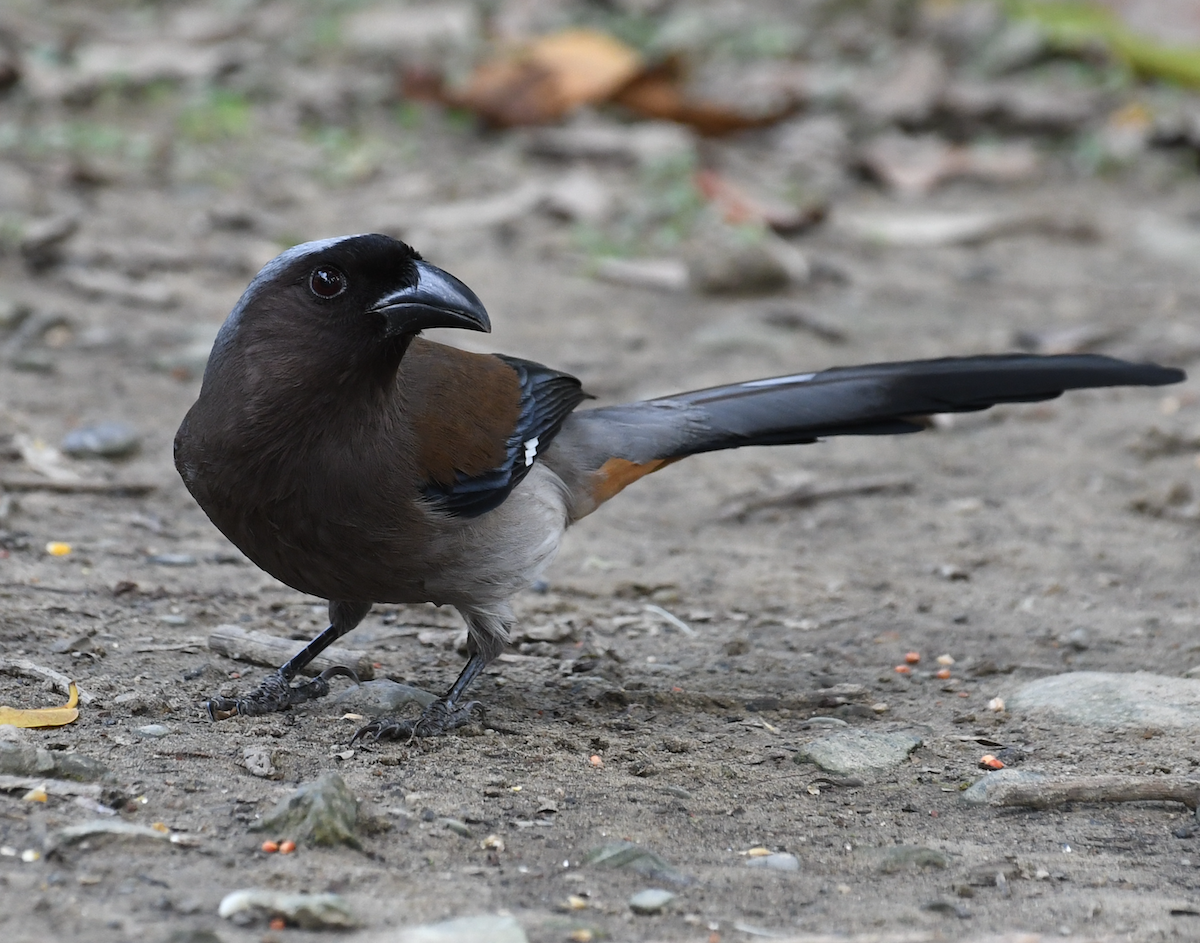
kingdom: Animalia
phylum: Chordata
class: Aves
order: Passeriformes
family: Corvidae
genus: Dendrocitta
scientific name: Dendrocitta formosae
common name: Grey treepie
